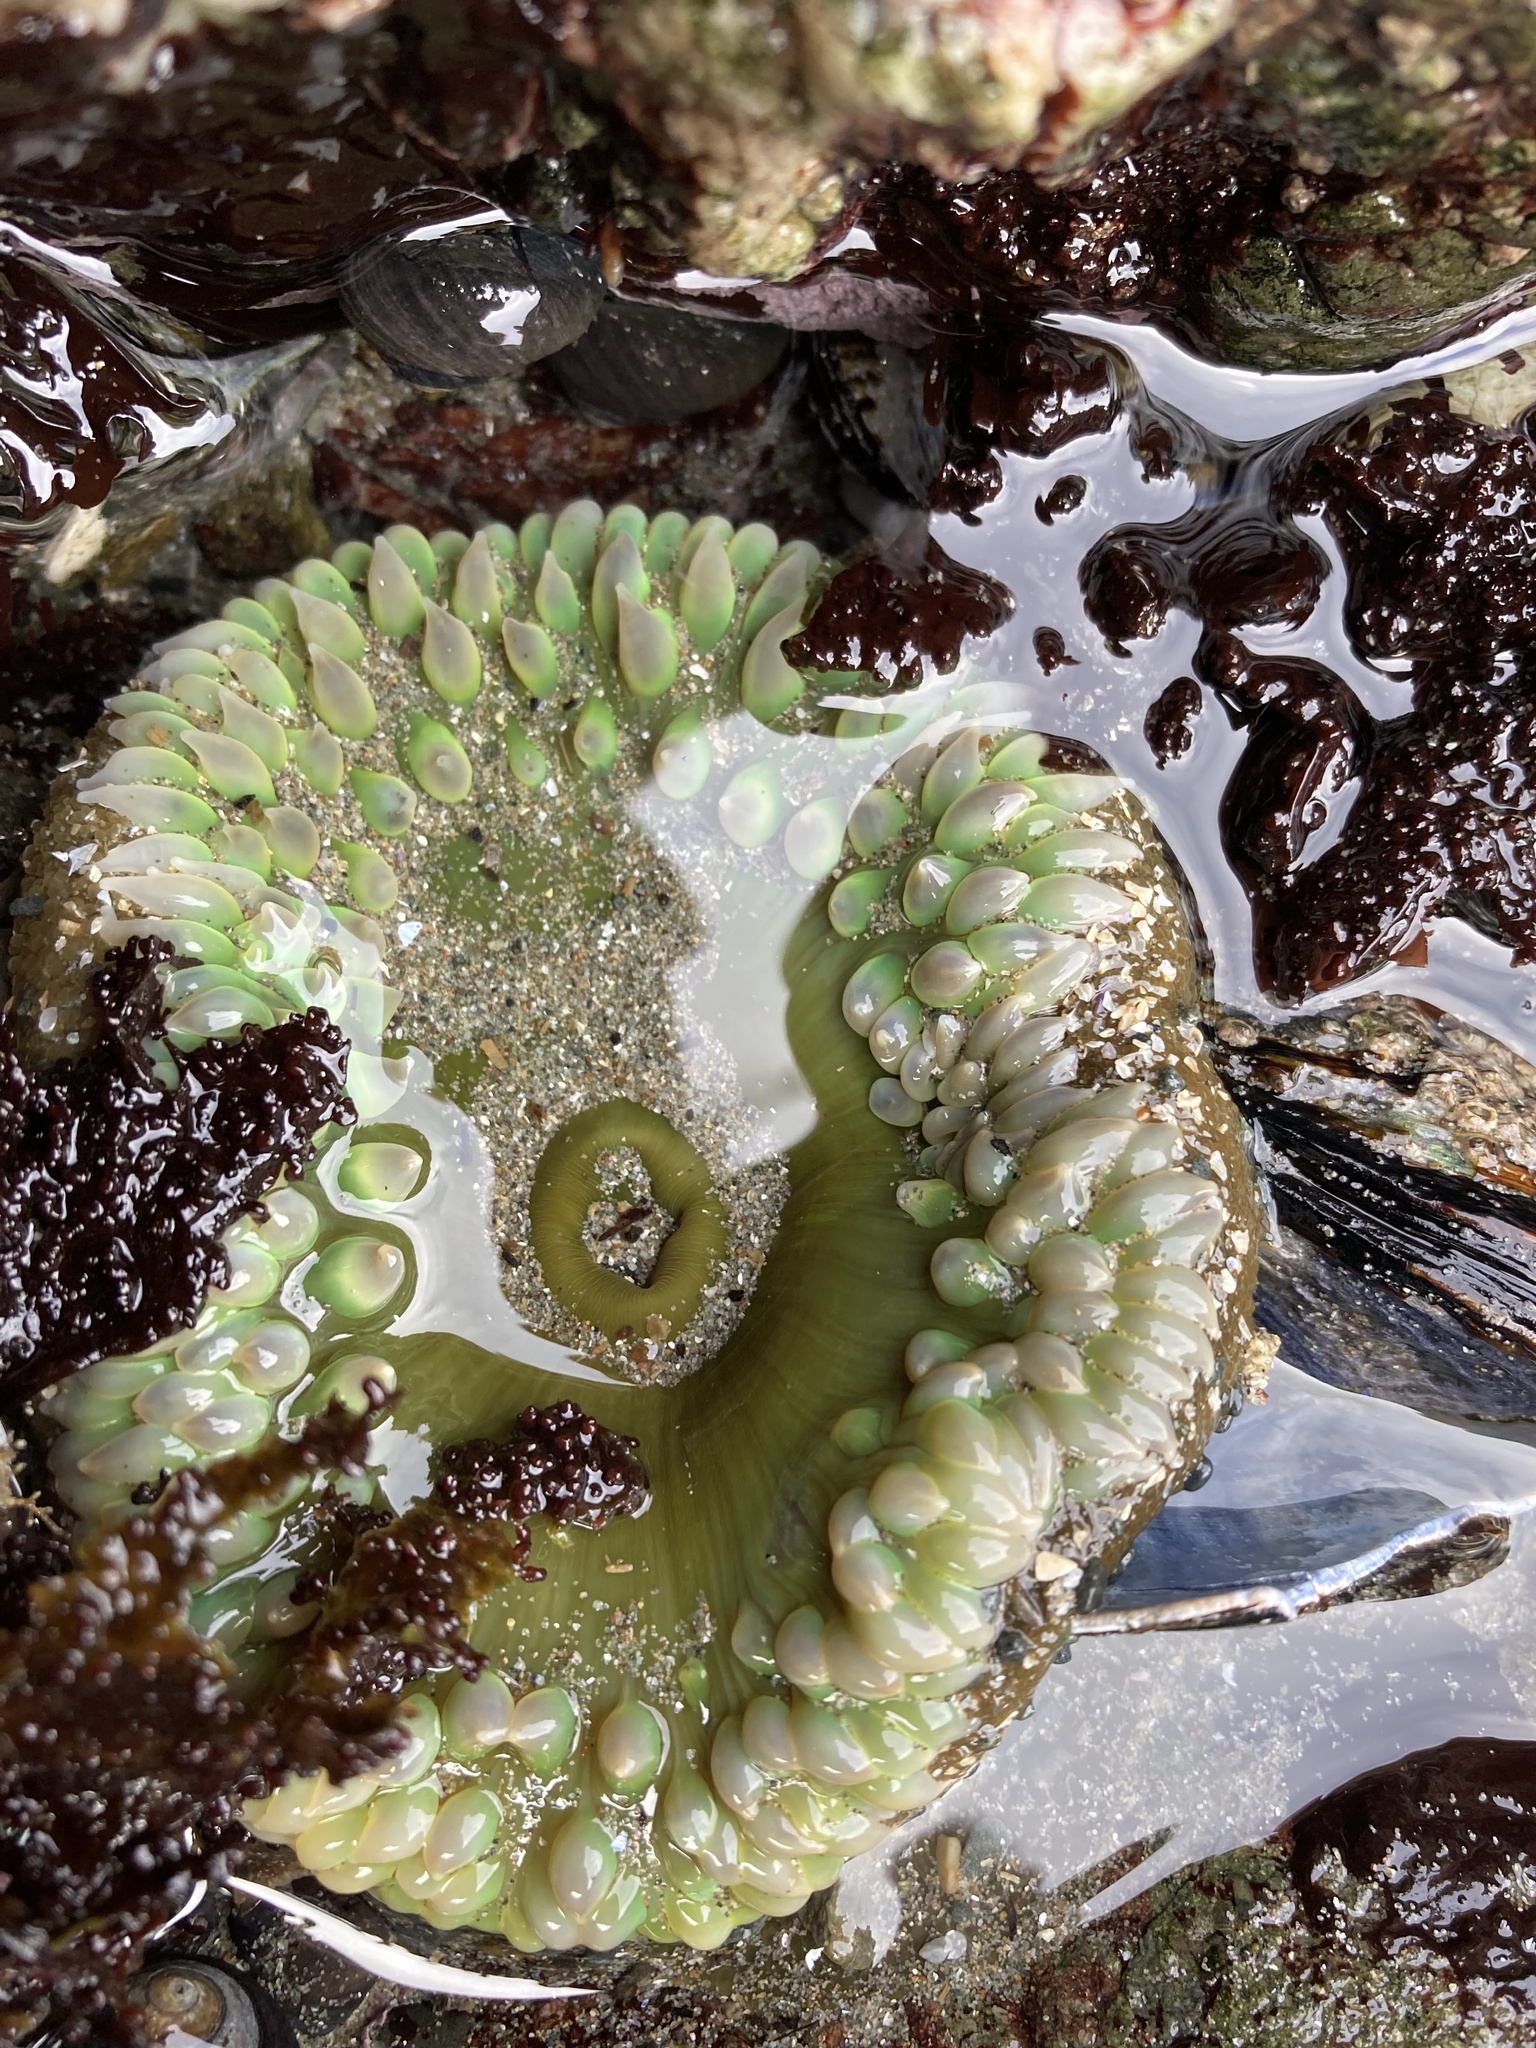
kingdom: Animalia
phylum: Cnidaria
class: Anthozoa
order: Actiniaria
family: Actiniidae
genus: Anthopleura
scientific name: Anthopleura xanthogrammica
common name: Giant green anemone
